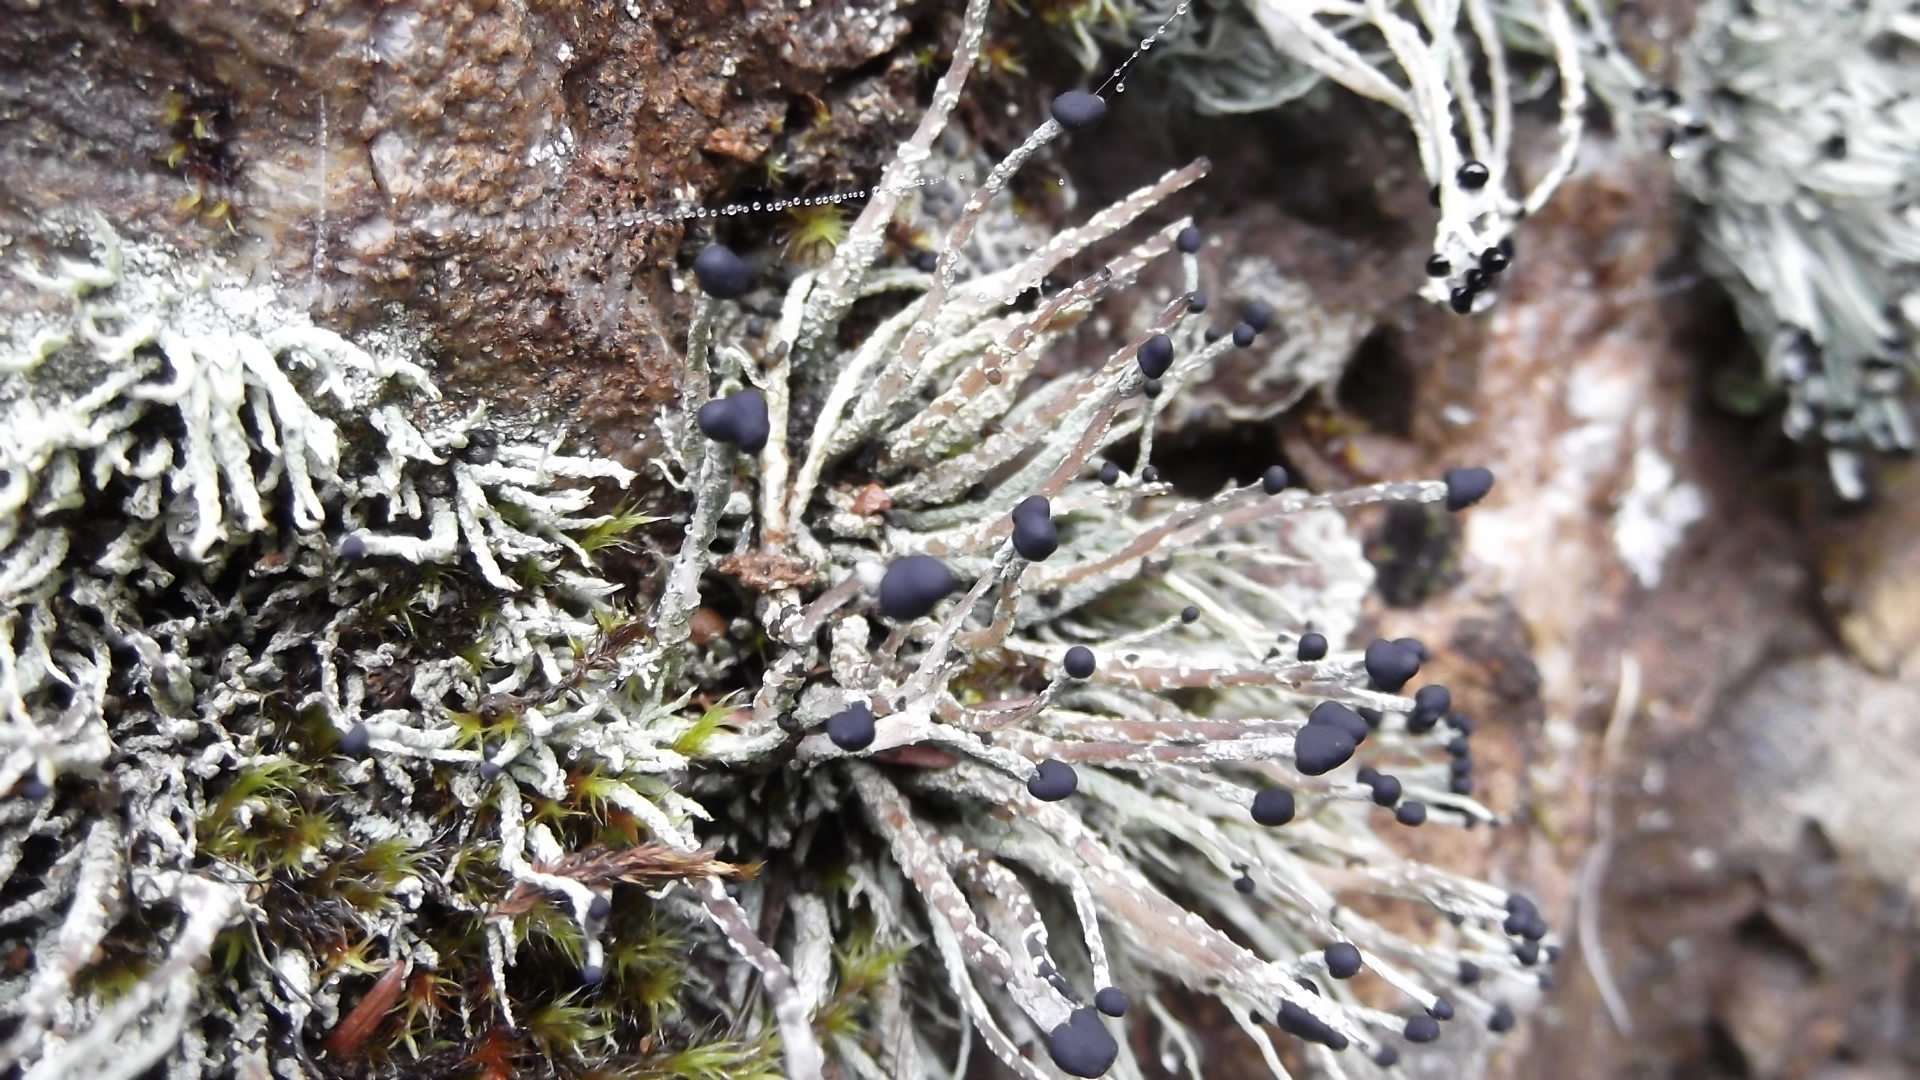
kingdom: Fungi
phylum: Ascomycota
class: Lecanoromycetes
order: Lecanorales
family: Cladoniaceae
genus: Pilophorus
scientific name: Pilophorus acicularis
